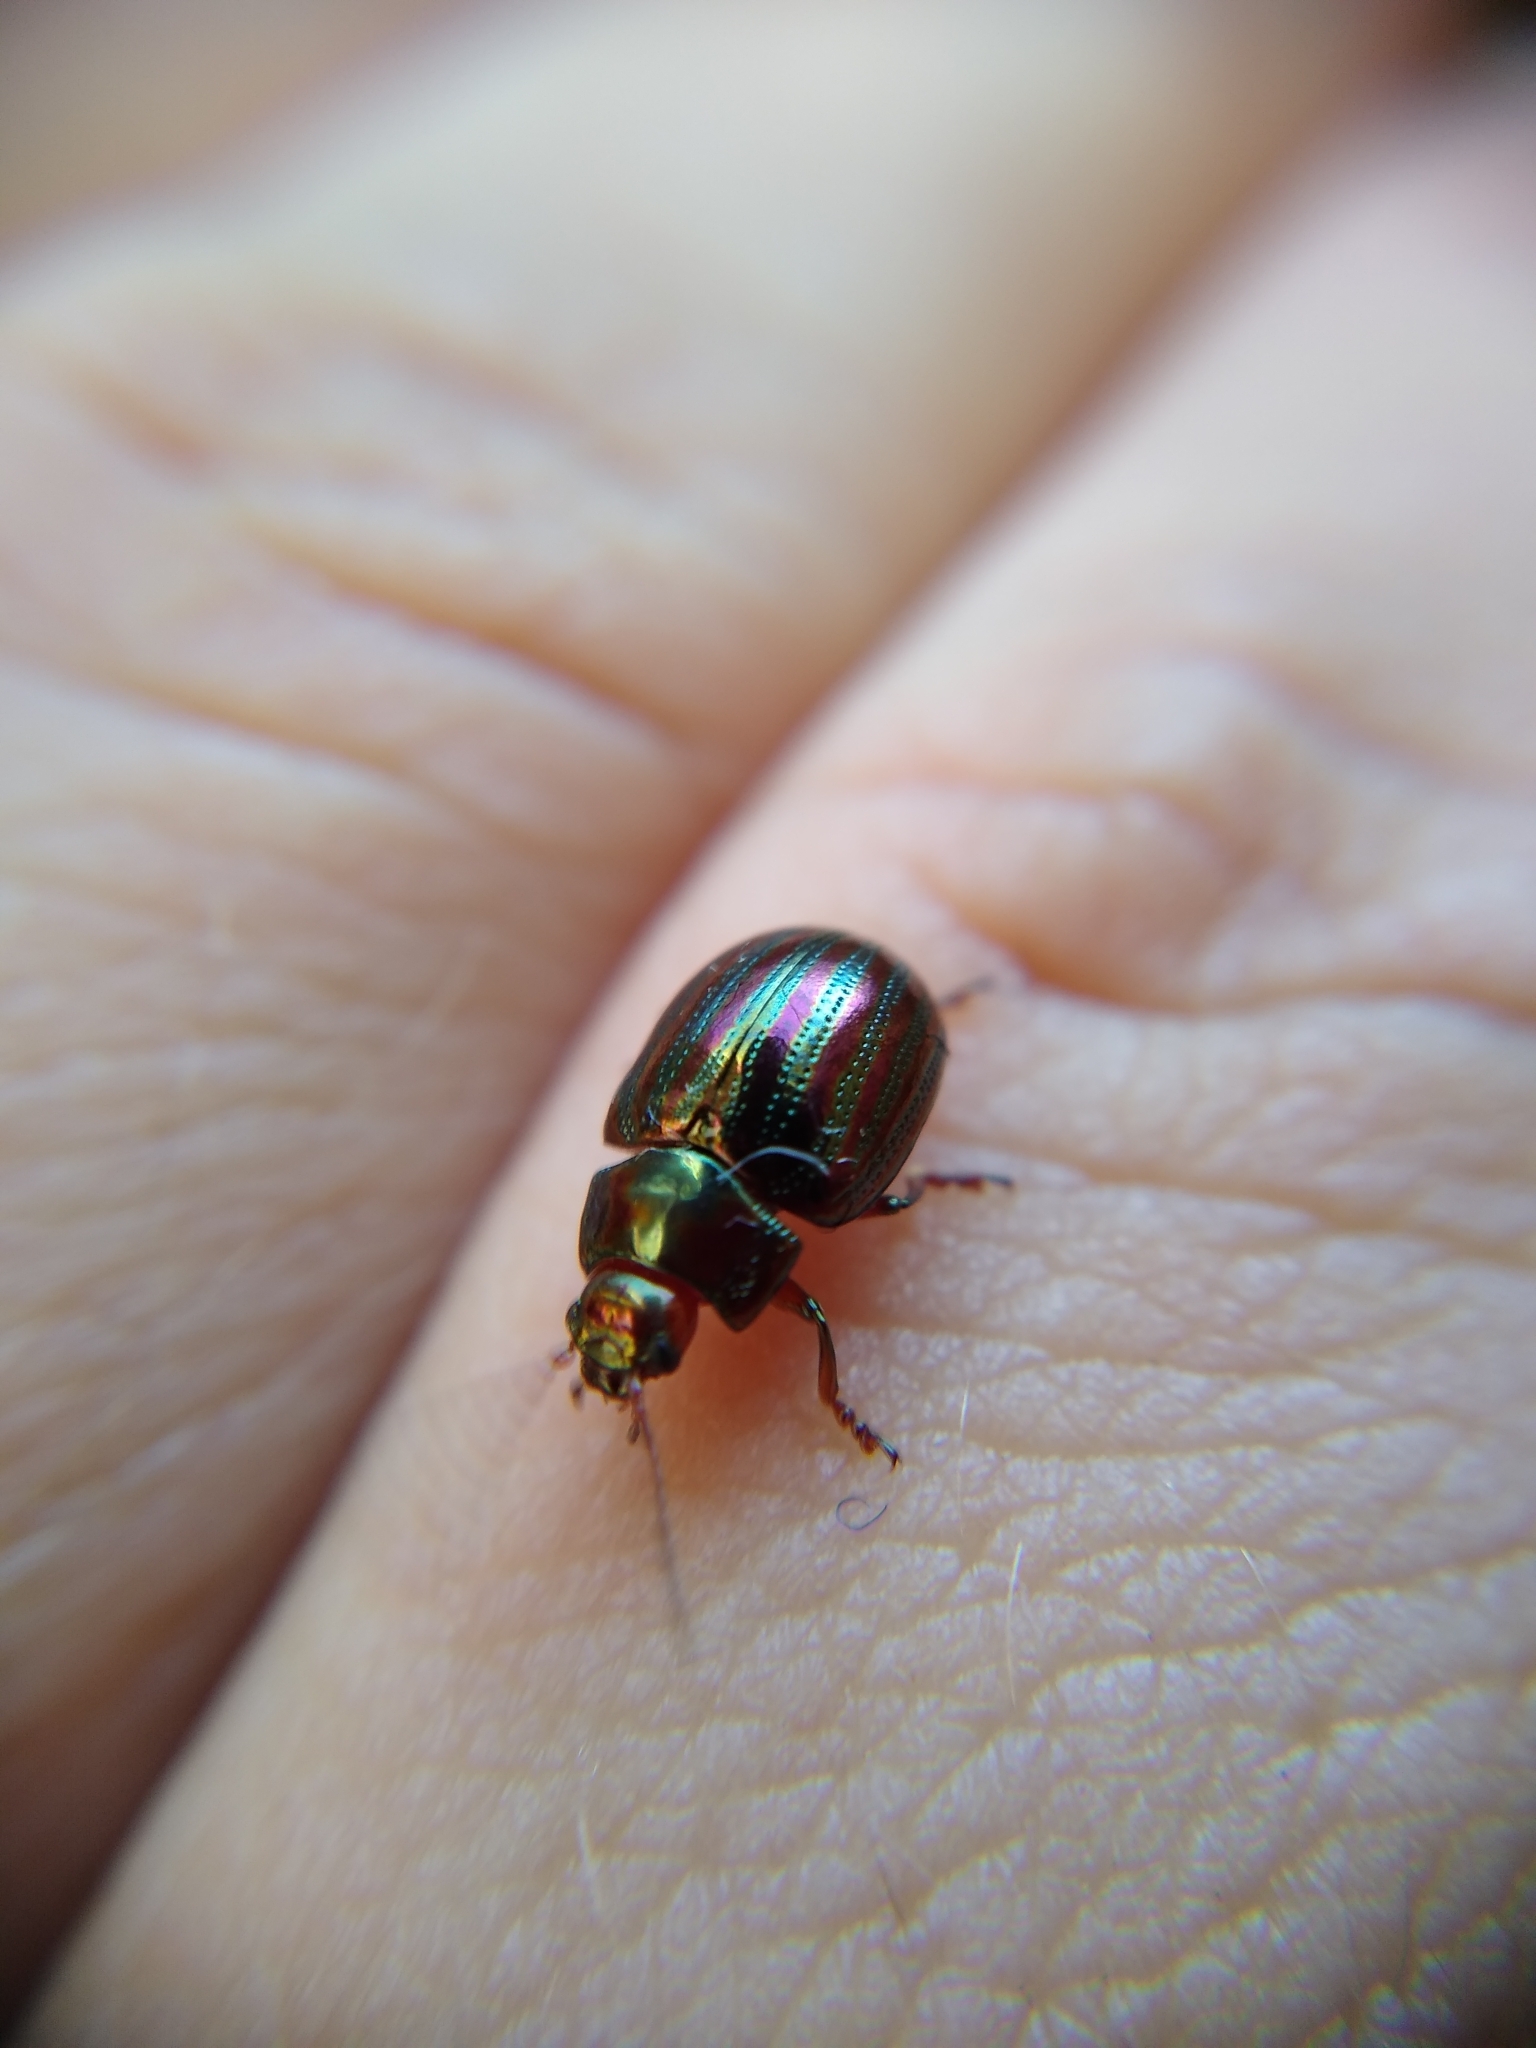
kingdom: Animalia
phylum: Arthropoda
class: Insecta
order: Coleoptera
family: Chrysomelidae
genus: Chrysolina
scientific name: Chrysolina americana
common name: Rosemary beetle
